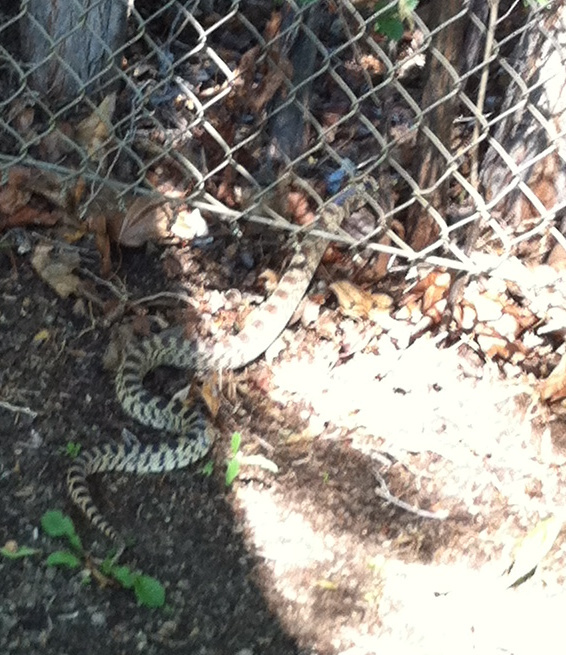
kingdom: Animalia
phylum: Chordata
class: Squamata
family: Colubridae
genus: Pituophis
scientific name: Pituophis catenifer
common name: Gopher snake
